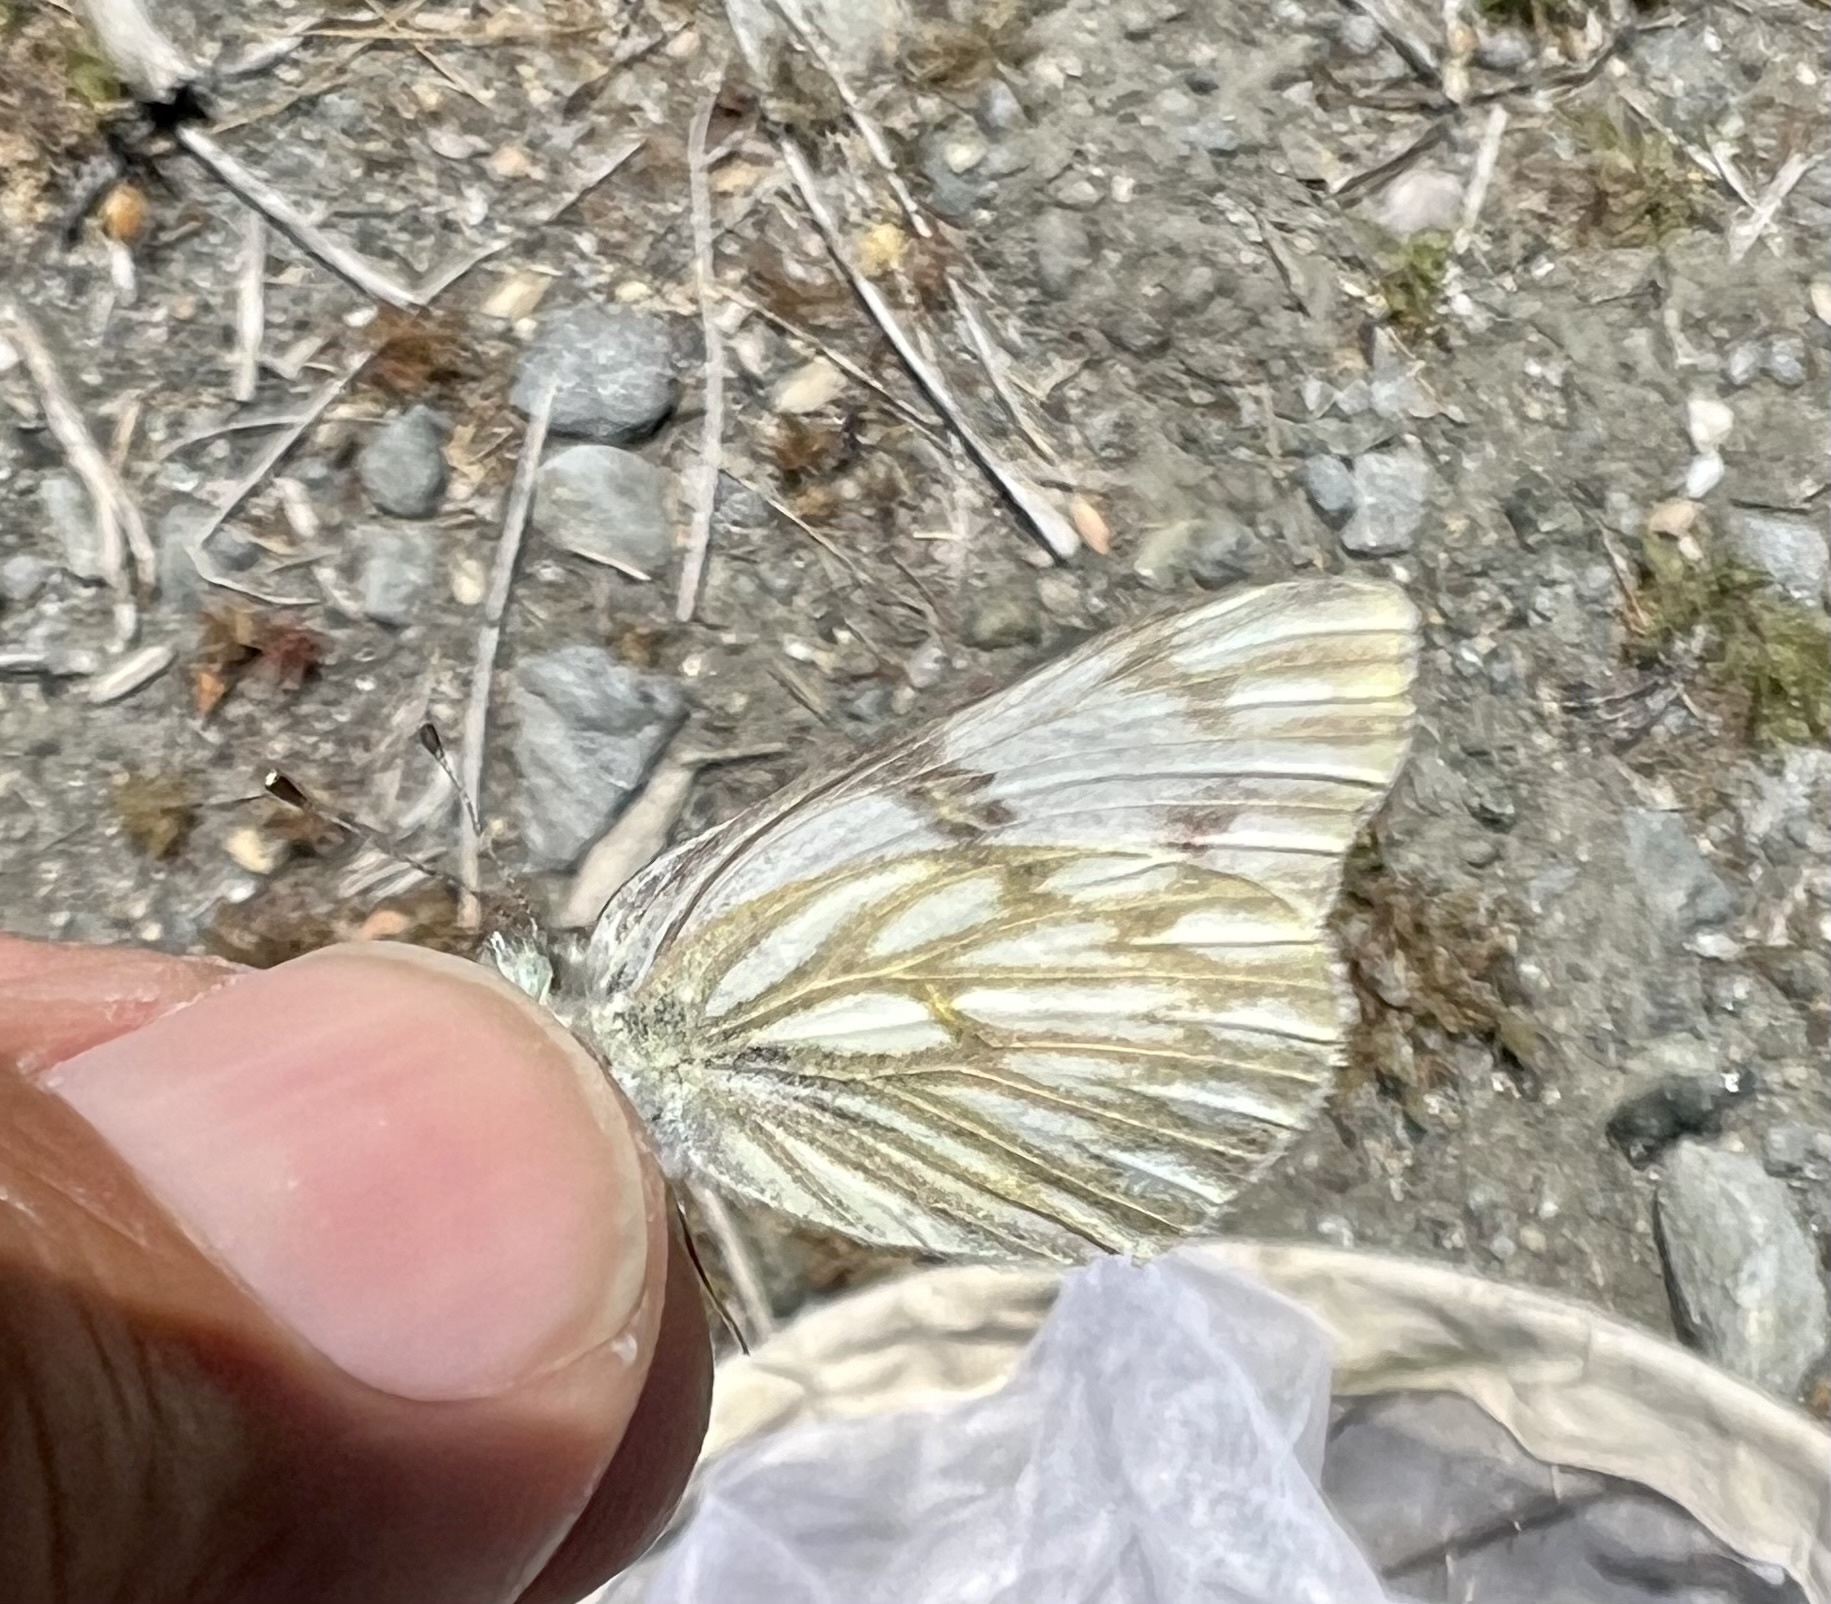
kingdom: Animalia
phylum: Arthropoda
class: Insecta
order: Lepidoptera
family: Pieridae
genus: Pontia
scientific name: Pontia protodice
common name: Checkered white
